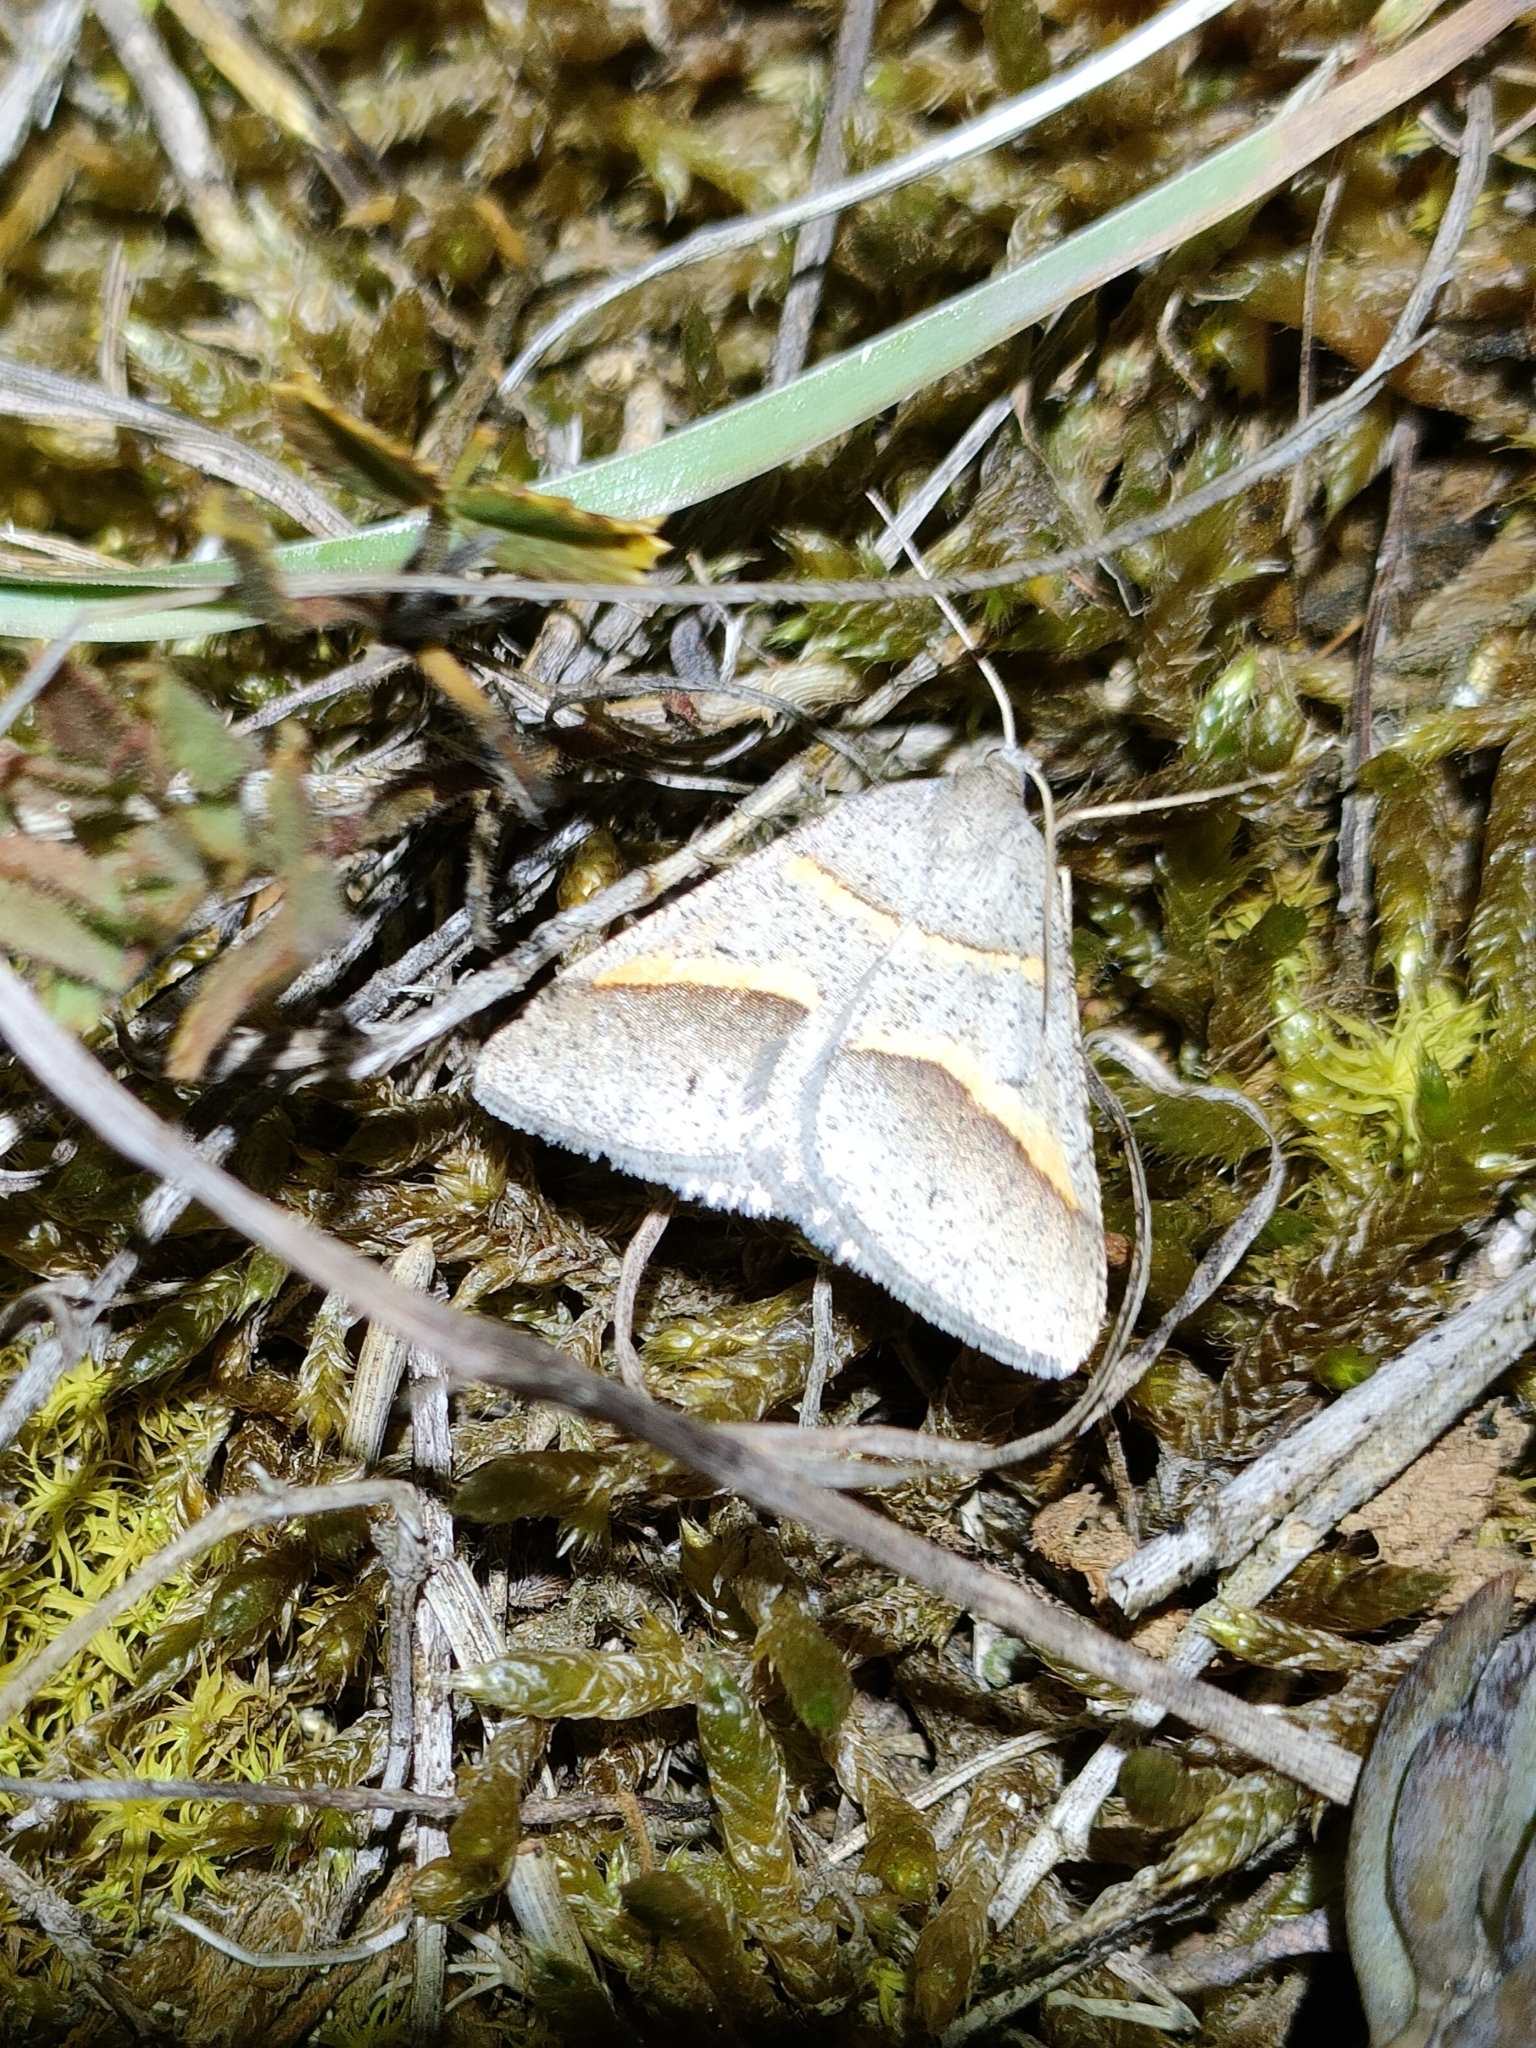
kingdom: Animalia
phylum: Arthropoda
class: Insecta
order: Lepidoptera
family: Pterophoridae
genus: Pterophorus
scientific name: Pterophorus Petrophora convergata
